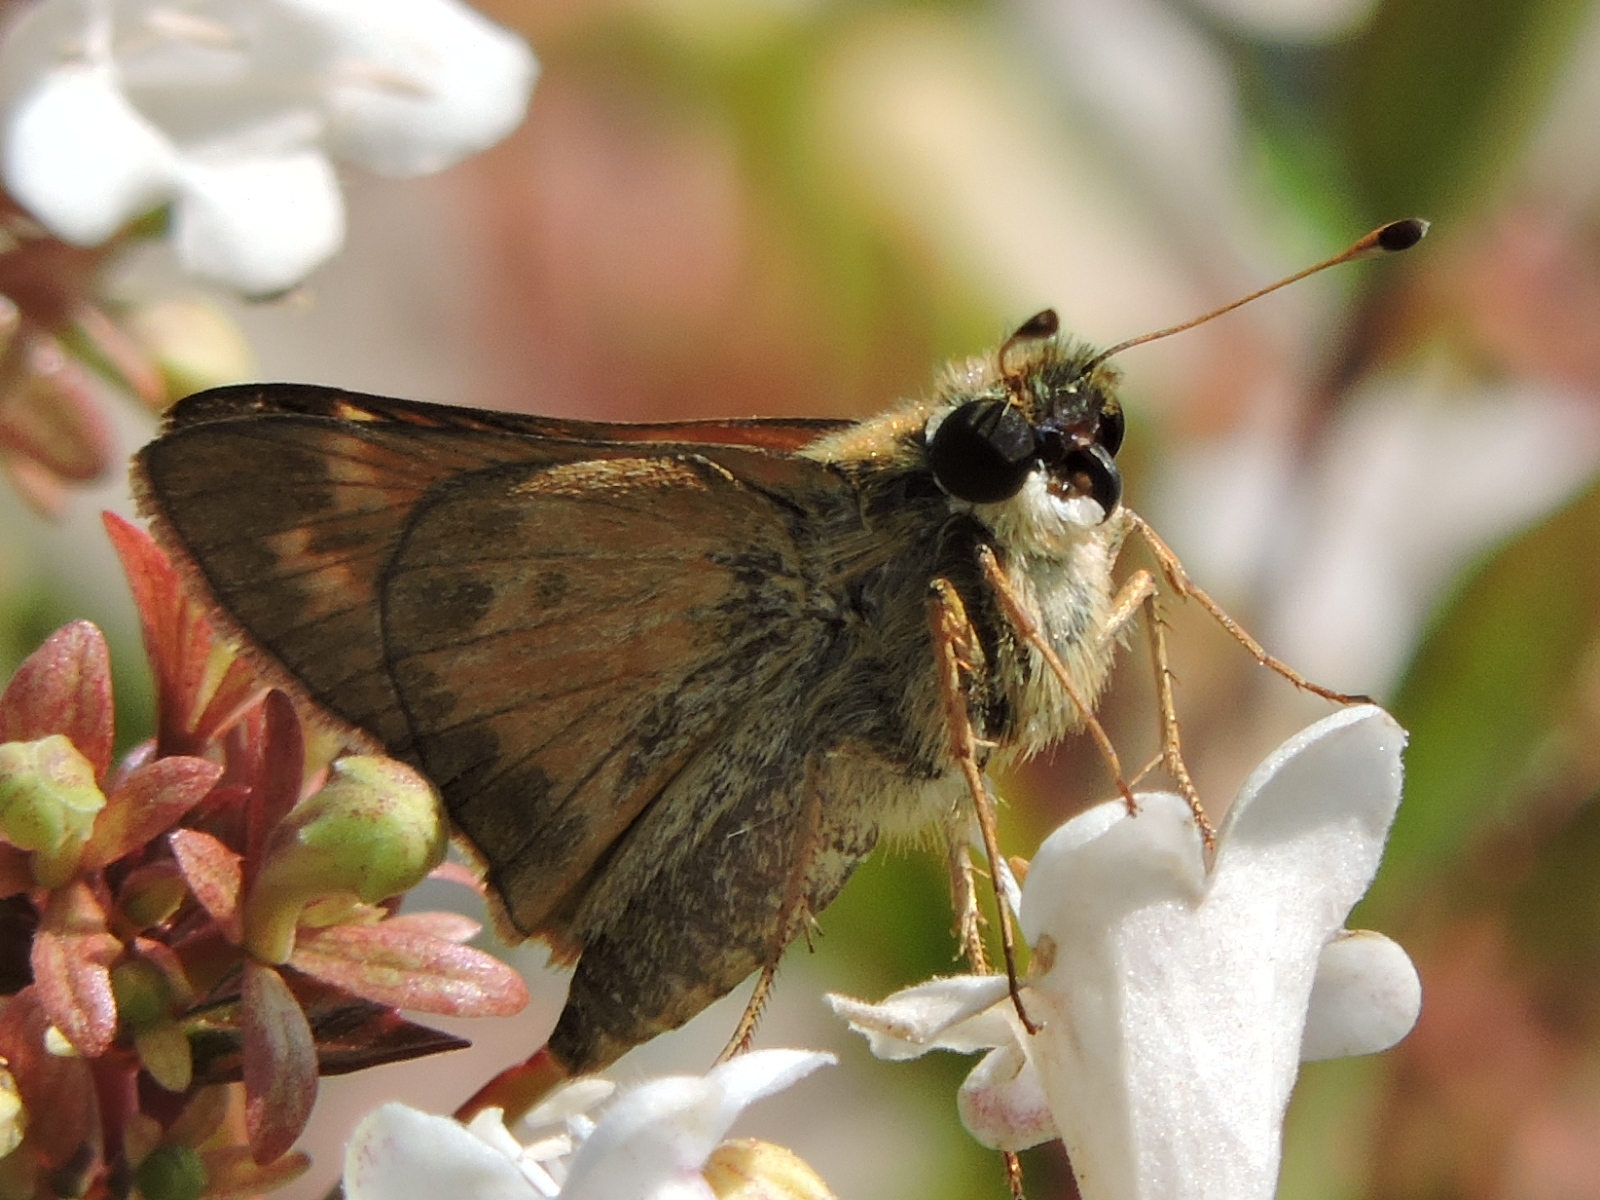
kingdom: Animalia
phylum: Arthropoda
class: Insecta
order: Lepidoptera
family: Hesperiidae
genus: Atalopedes
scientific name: Atalopedes
